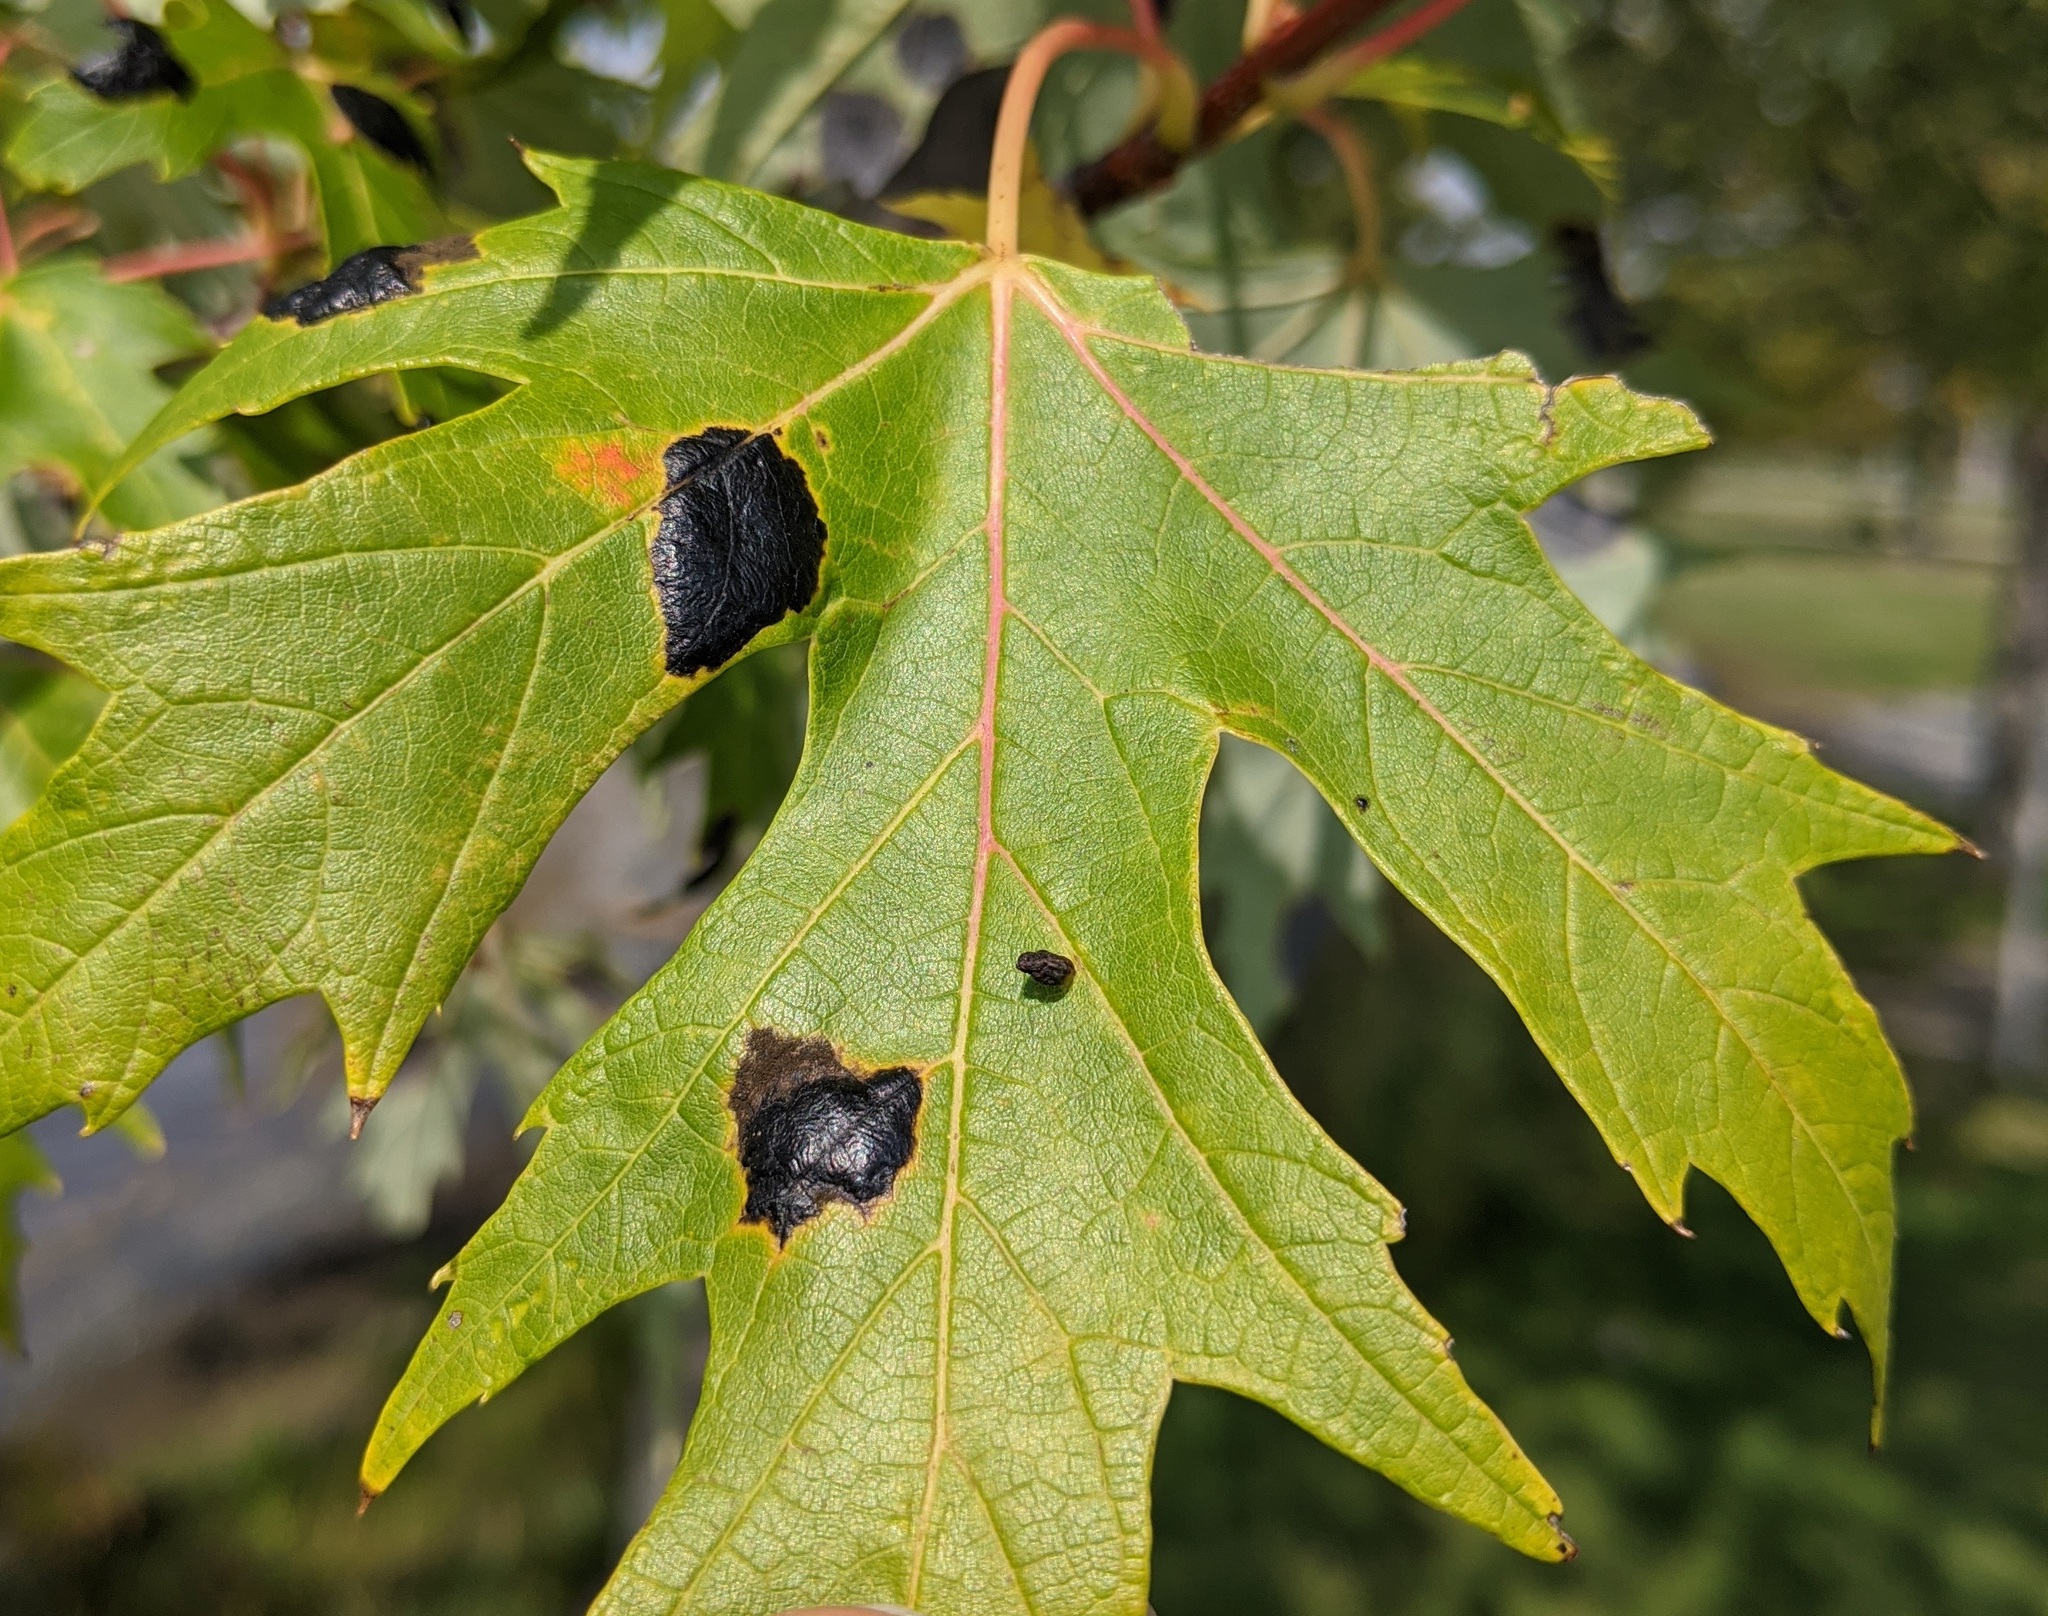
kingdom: Fungi
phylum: Ascomycota
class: Leotiomycetes
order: Rhytismatales
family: Rhytismataceae
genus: Rhytisma
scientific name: Rhytisma americanum
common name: American tar spot
